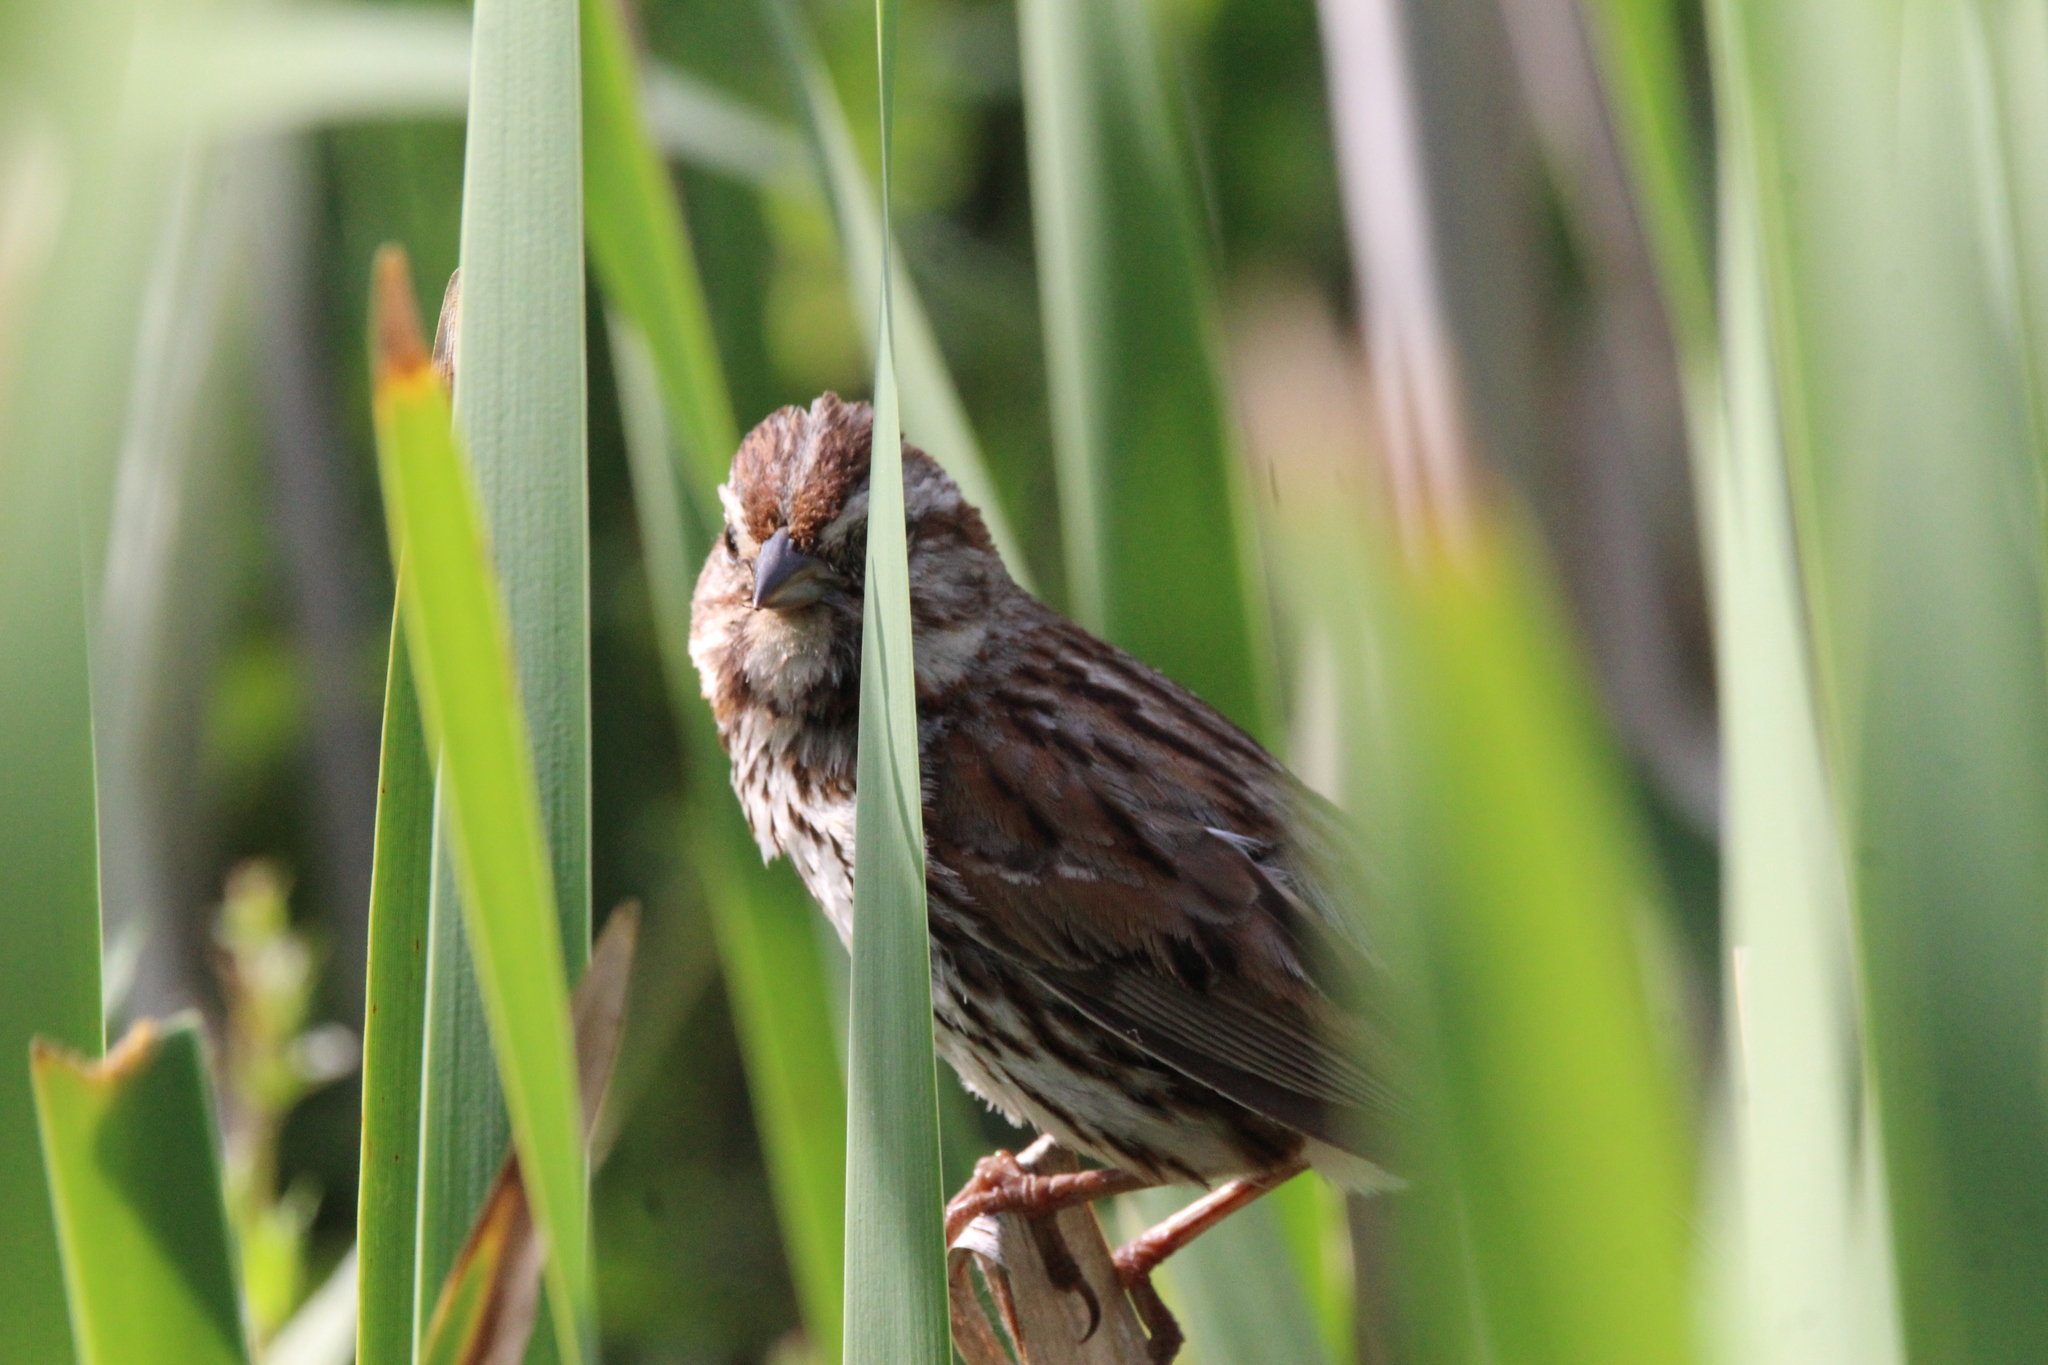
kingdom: Animalia
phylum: Chordata
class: Aves
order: Passeriformes
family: Passerellidae
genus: Melospiza
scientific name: Melospiza melodia
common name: Song sparrow
